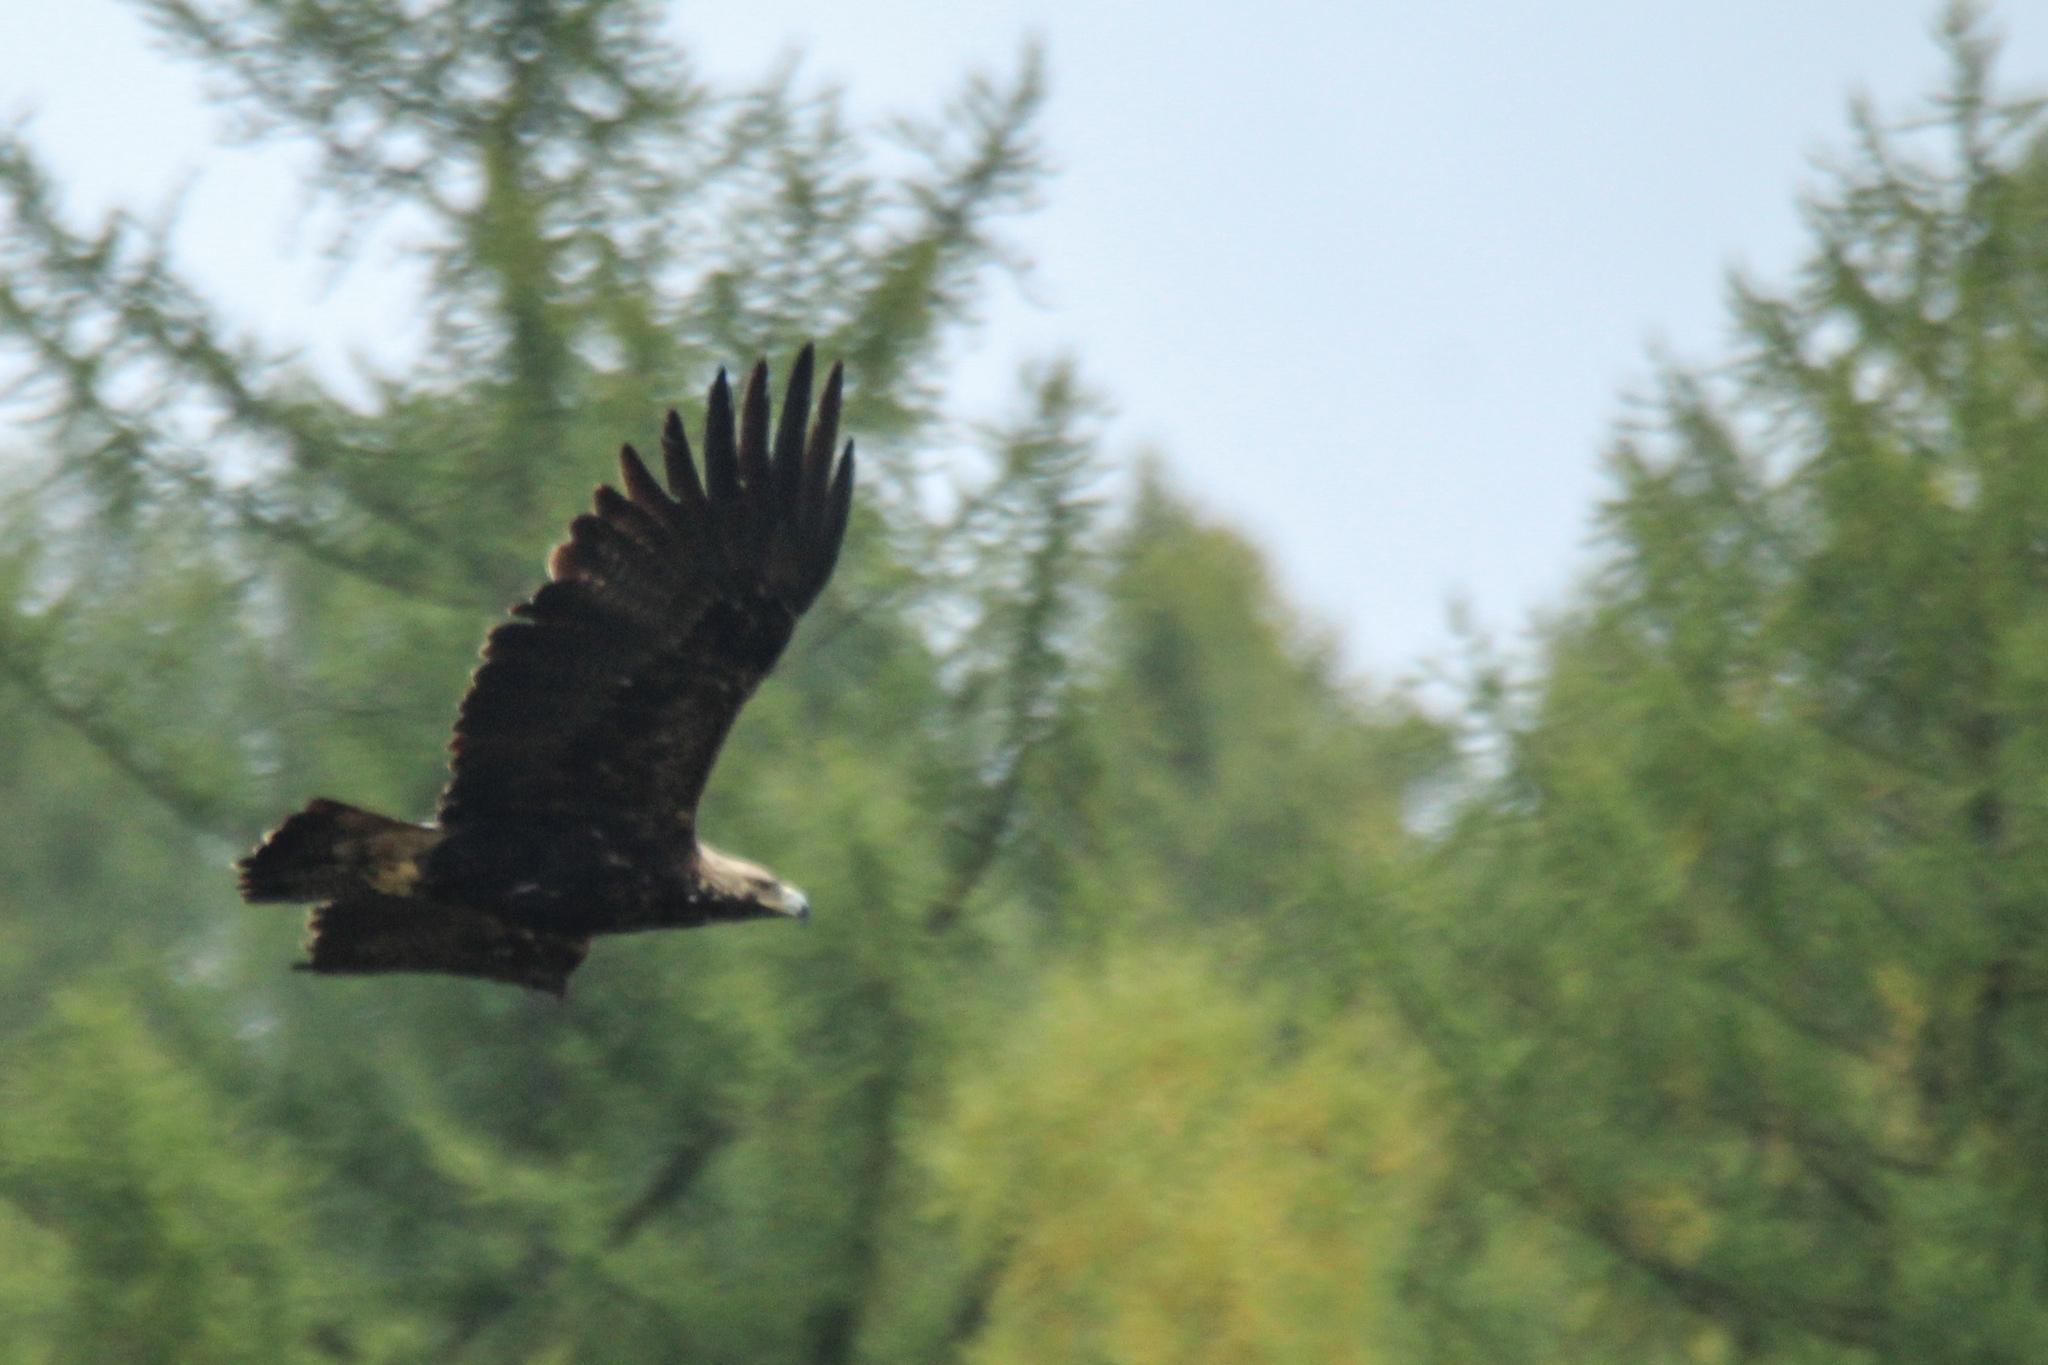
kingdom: Animalia
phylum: Chordata
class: Aves
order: Accipitriformes
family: Accipitridae
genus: Aquila
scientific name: Aquila heliaca
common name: Eastern imperial eagle
